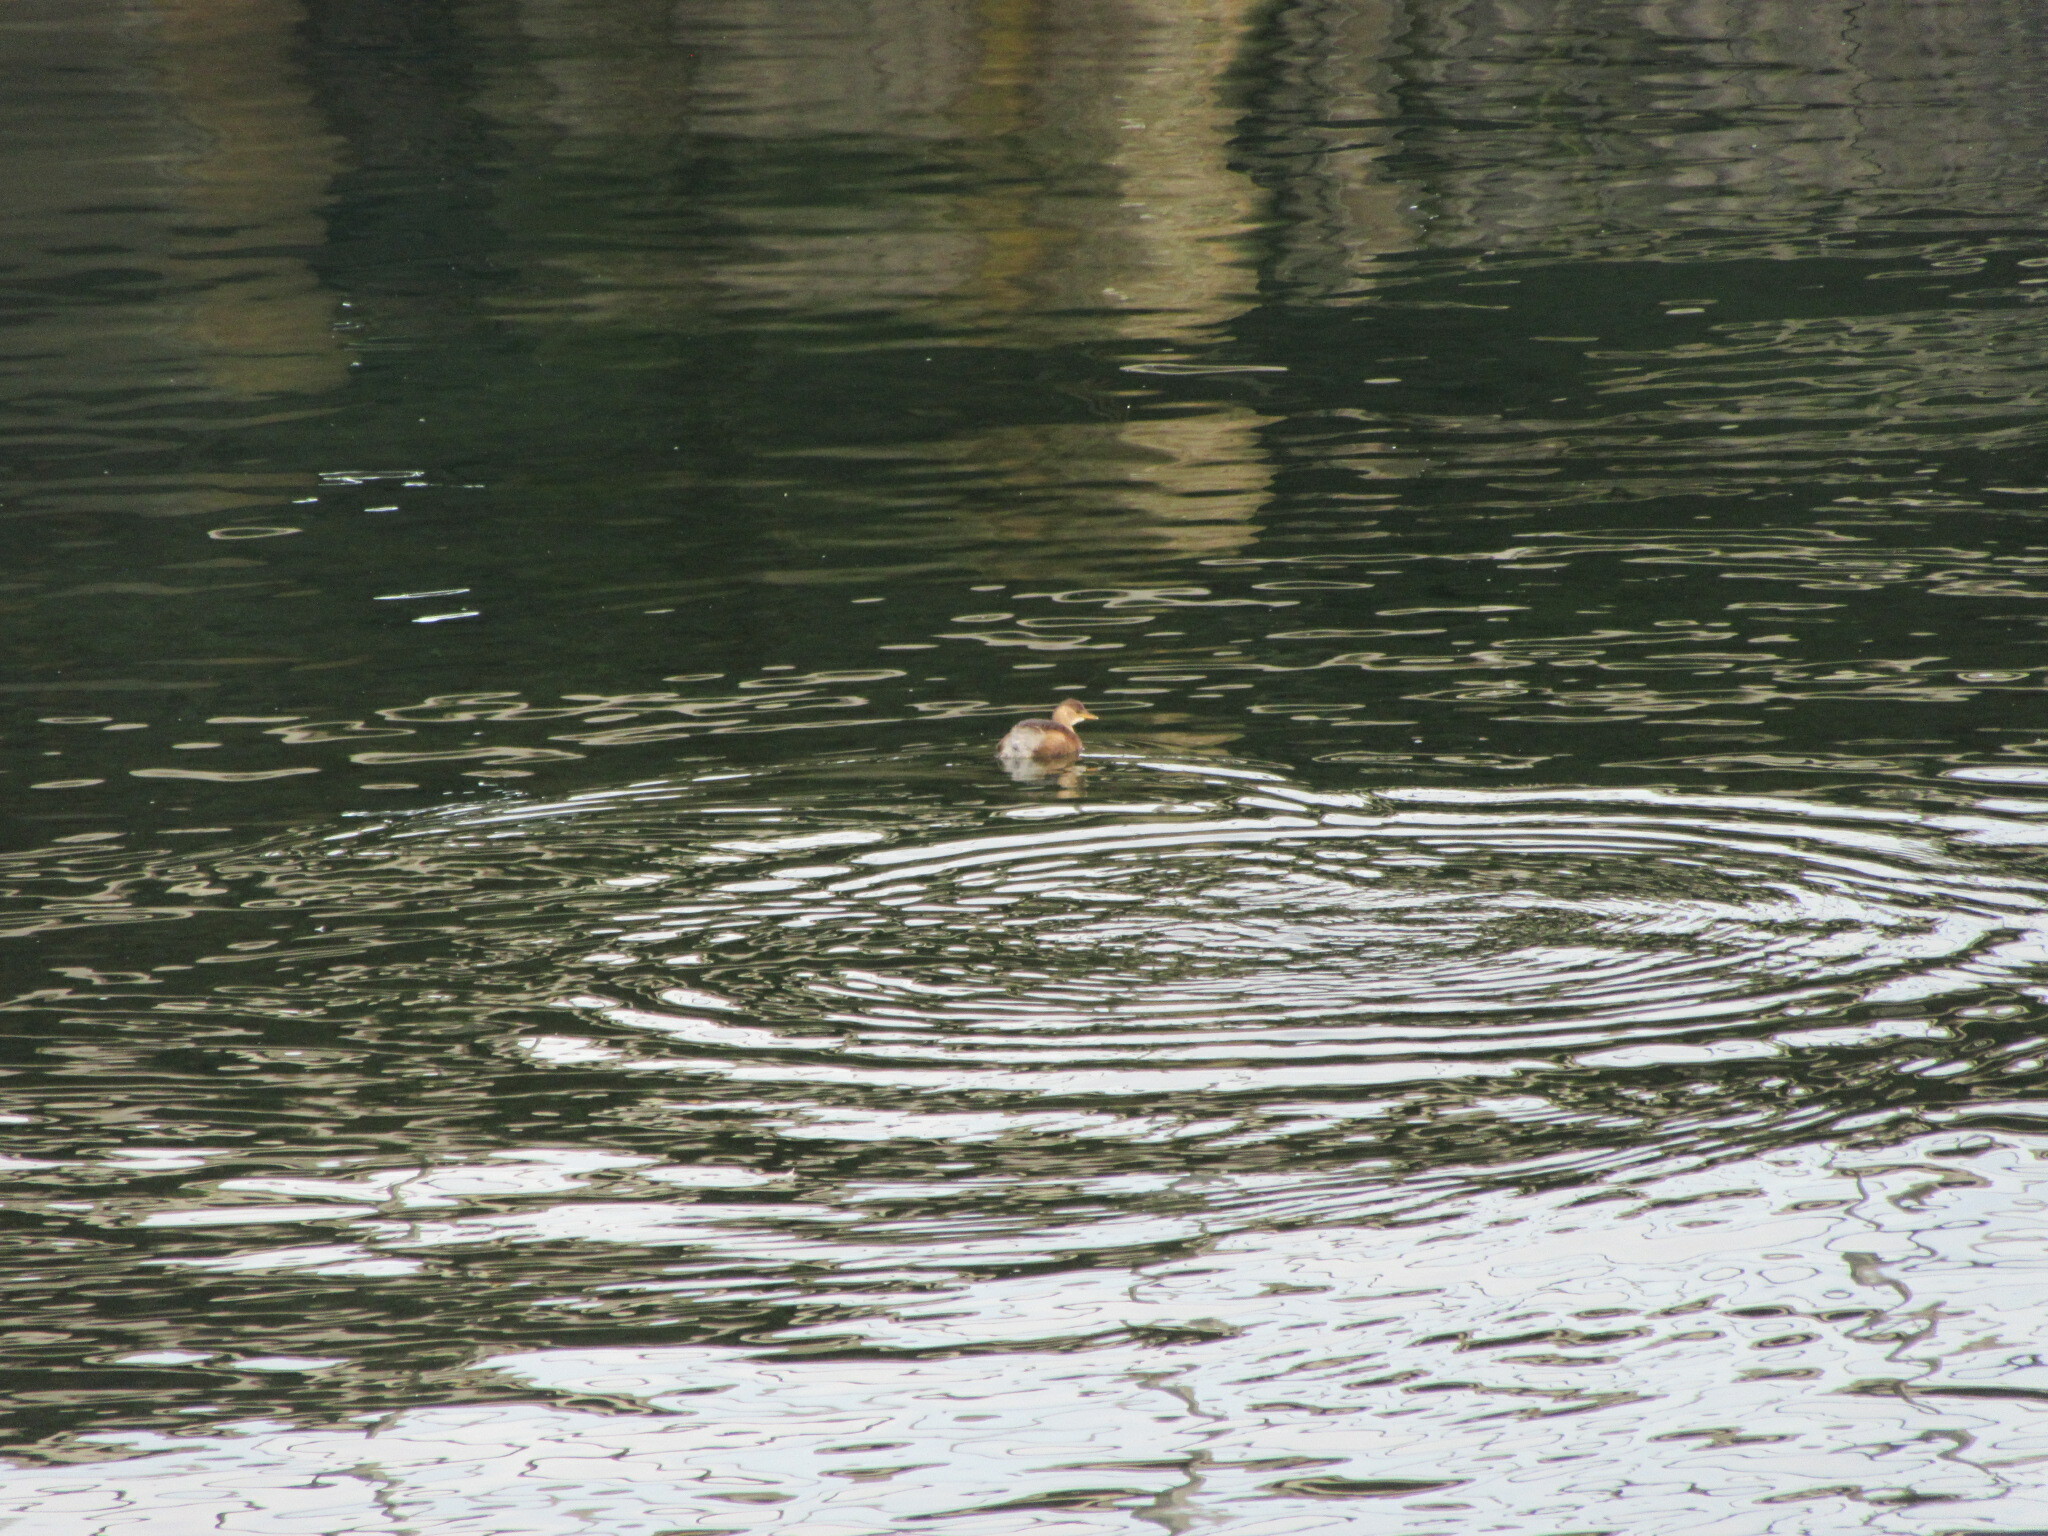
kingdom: Animalia
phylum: Chordata
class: Aves
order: Podicipediformes
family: Podicipedidae
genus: Tachybaptus
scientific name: Tachybaptus ruficollis
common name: Little grebe
